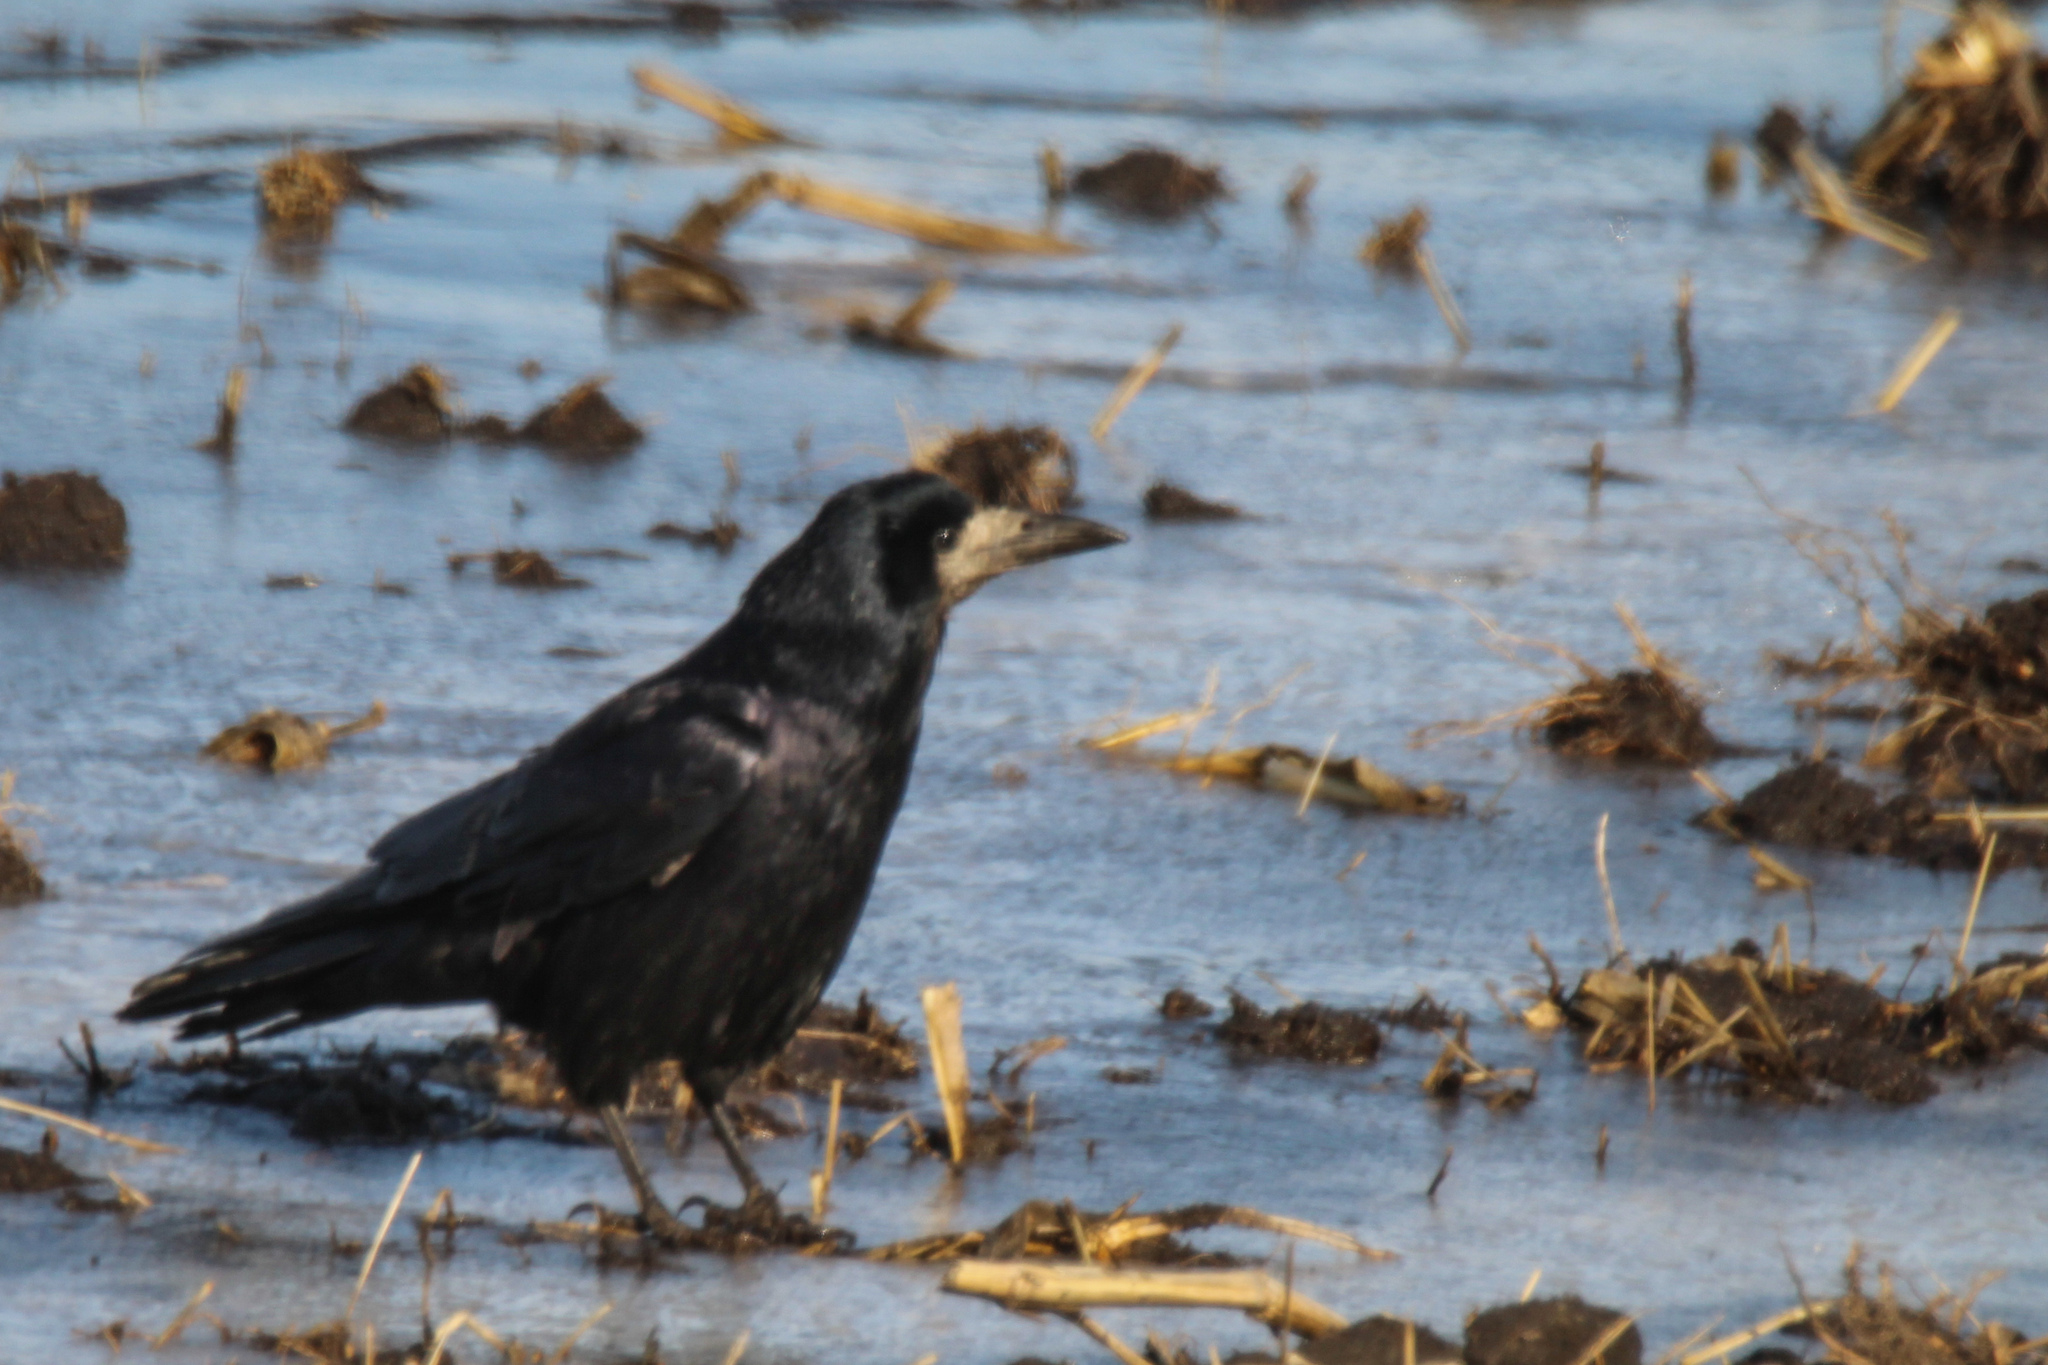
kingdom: Animalia
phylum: Chordata
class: Aves
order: Passeriformes
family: Corvidae
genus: Corvus
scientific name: Corvus frugilegus
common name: Rook
